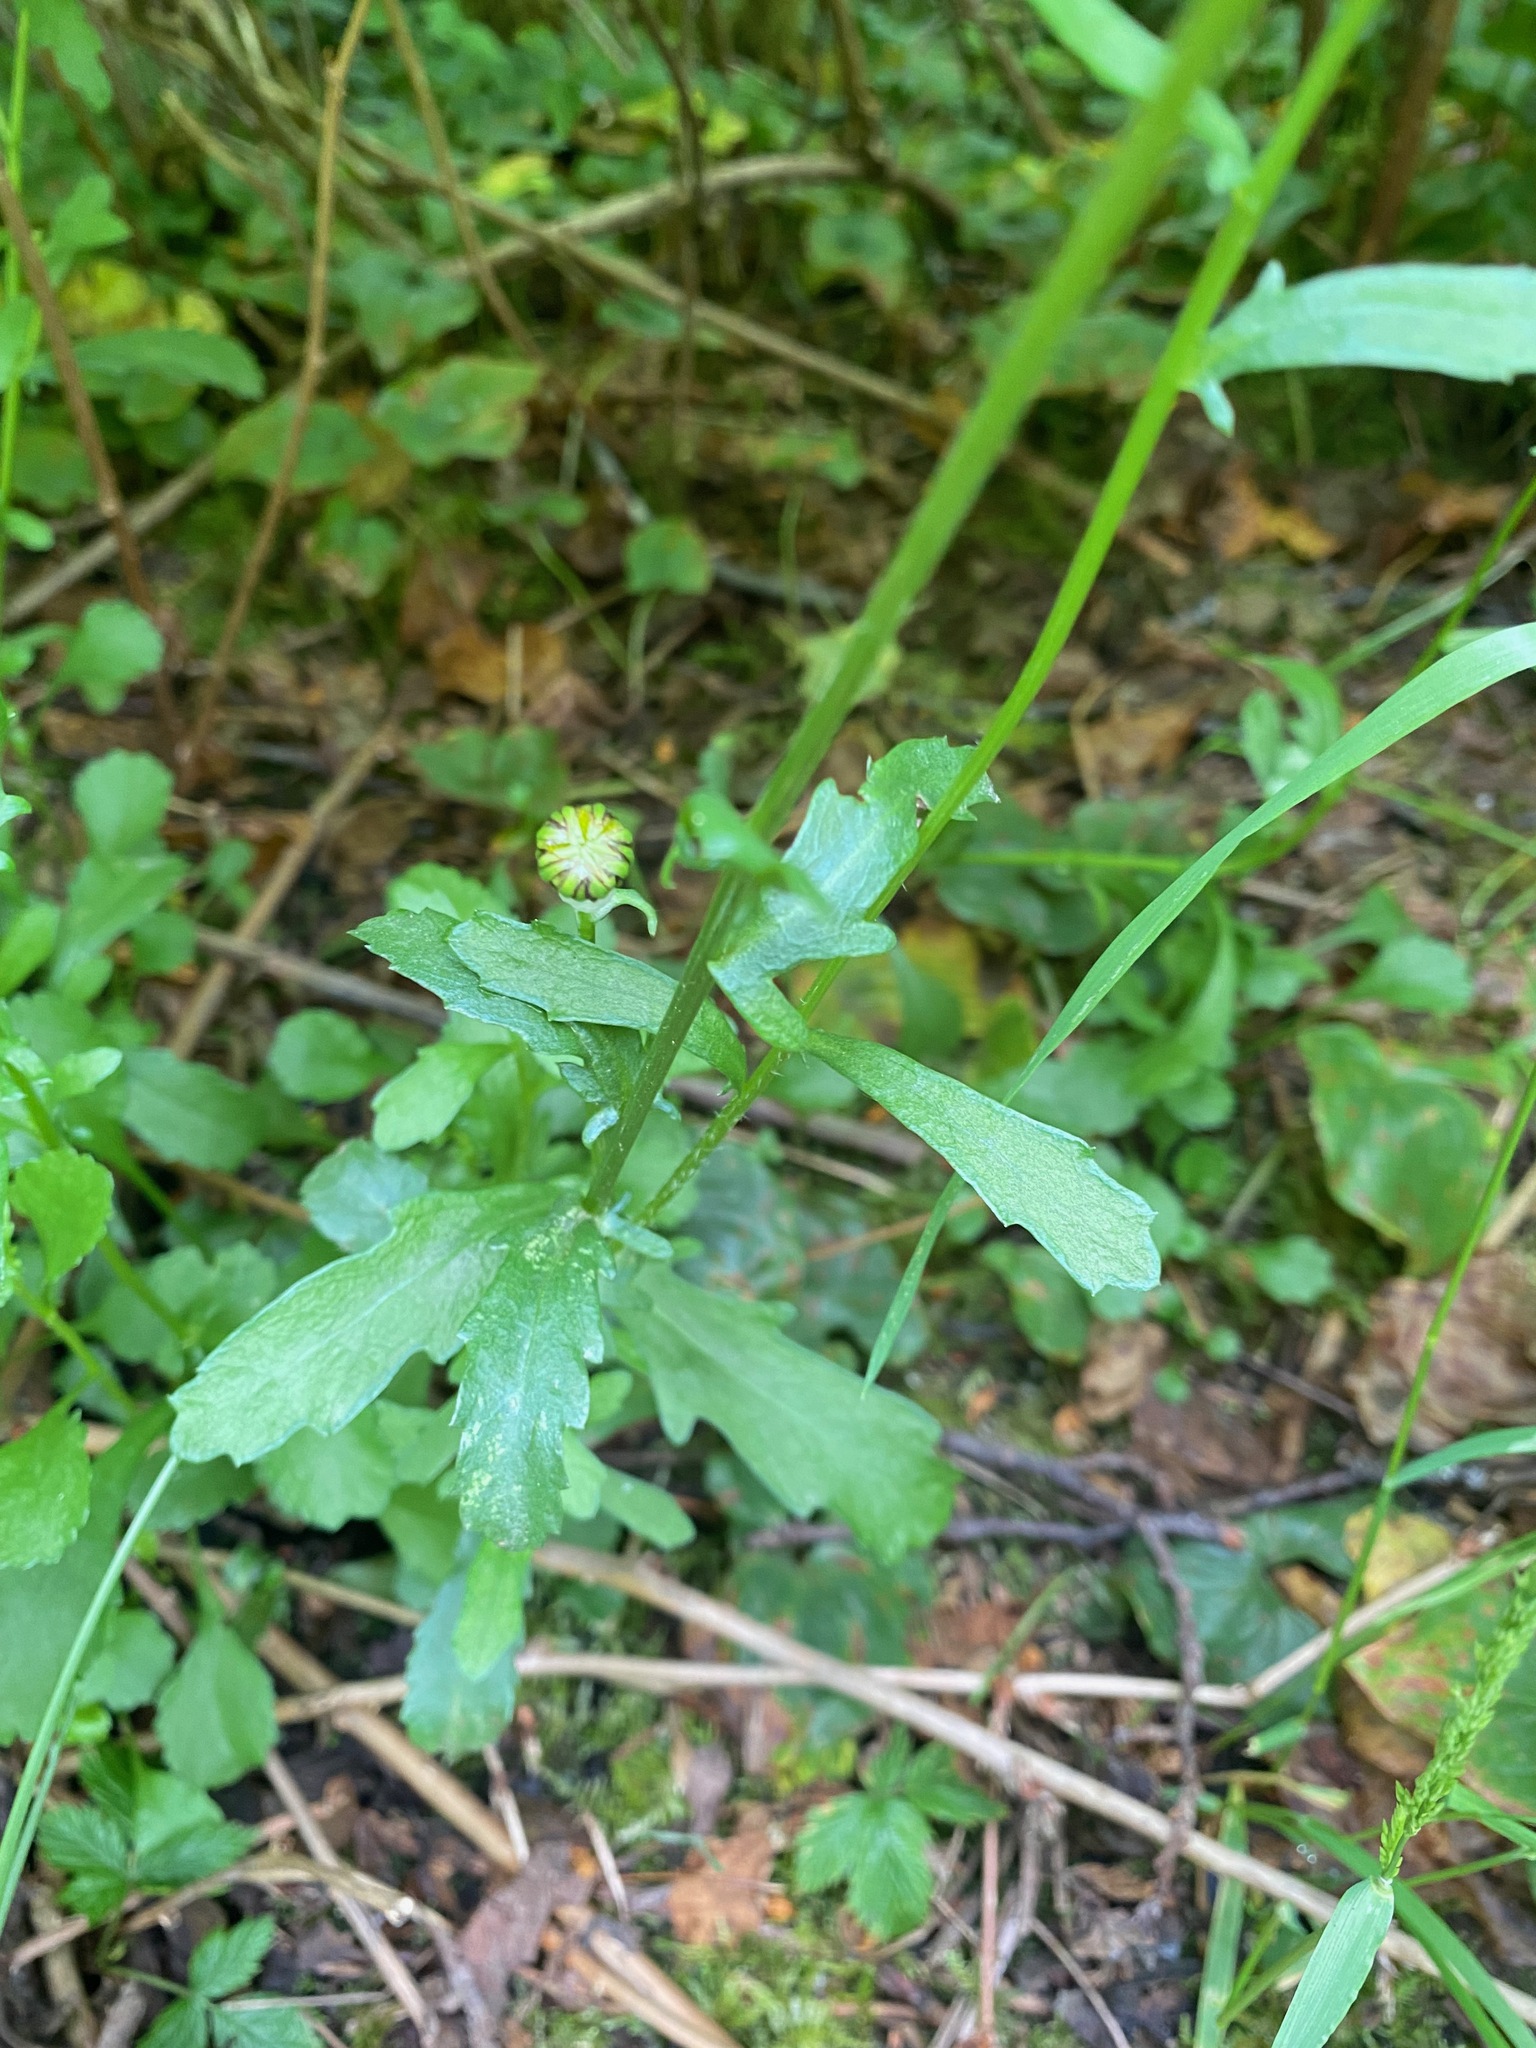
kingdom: Plantae
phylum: Tracheophyta
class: Magnoliopsida
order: Asterales
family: Asteraceae
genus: Leucanthemum
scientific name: Leucanthemum vulgare
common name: Oxeye daisy
